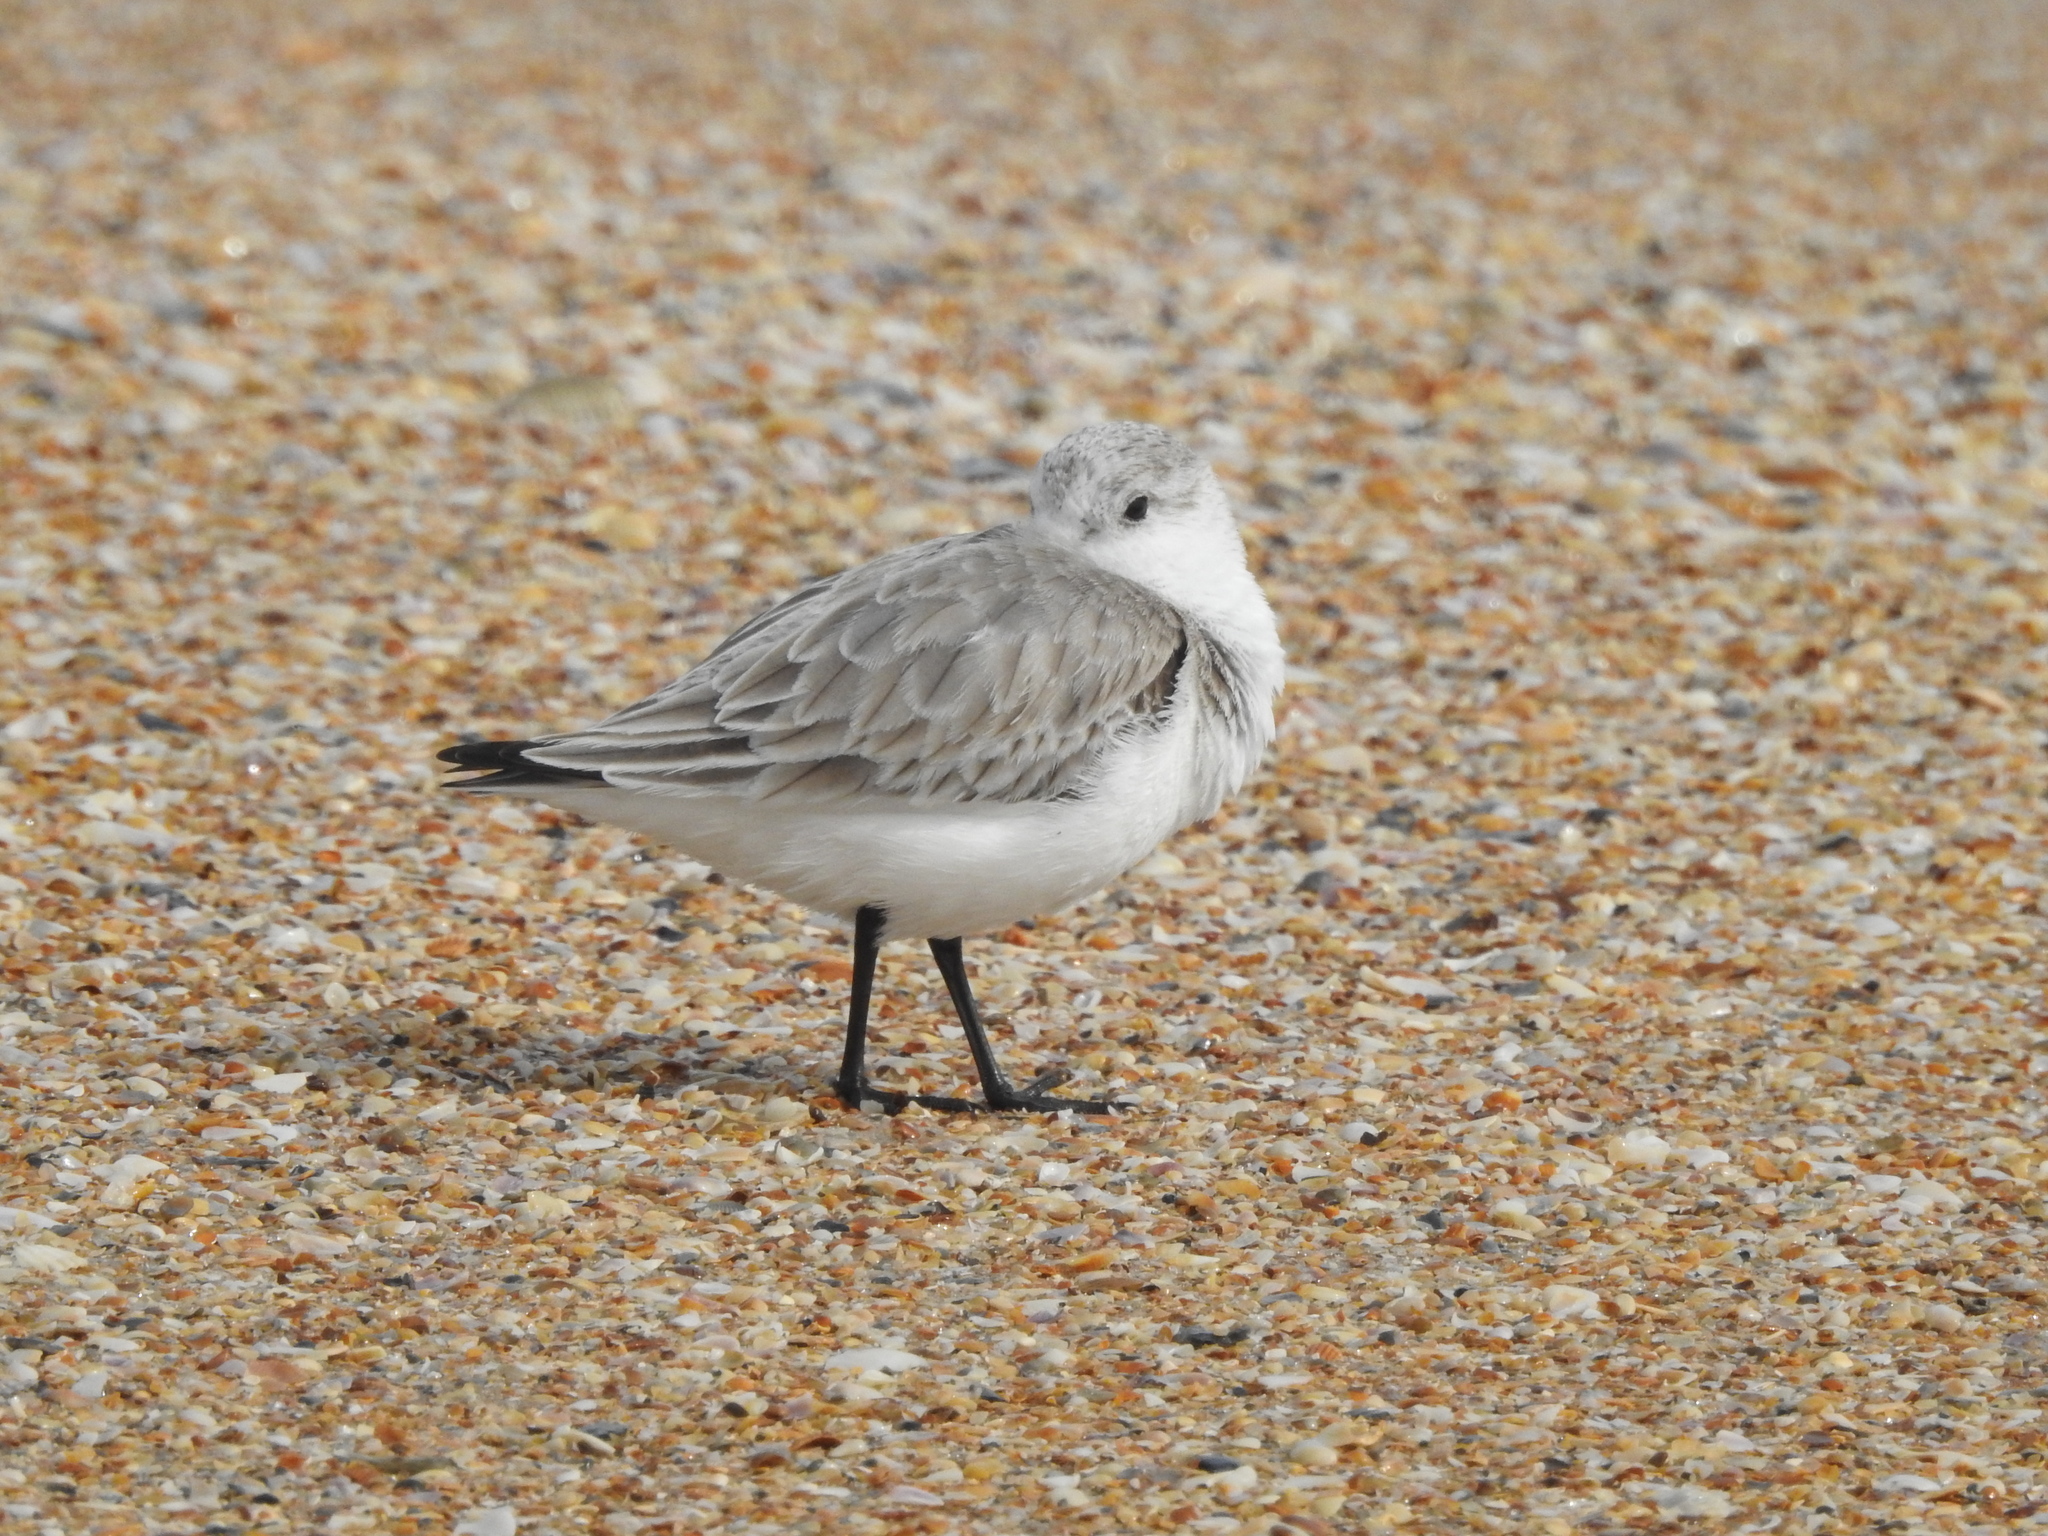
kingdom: Animalia
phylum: Chordata
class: Aves
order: Charadriiformes
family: Scolopacidae
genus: Calidris
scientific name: Calidris alba
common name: Sanderling
